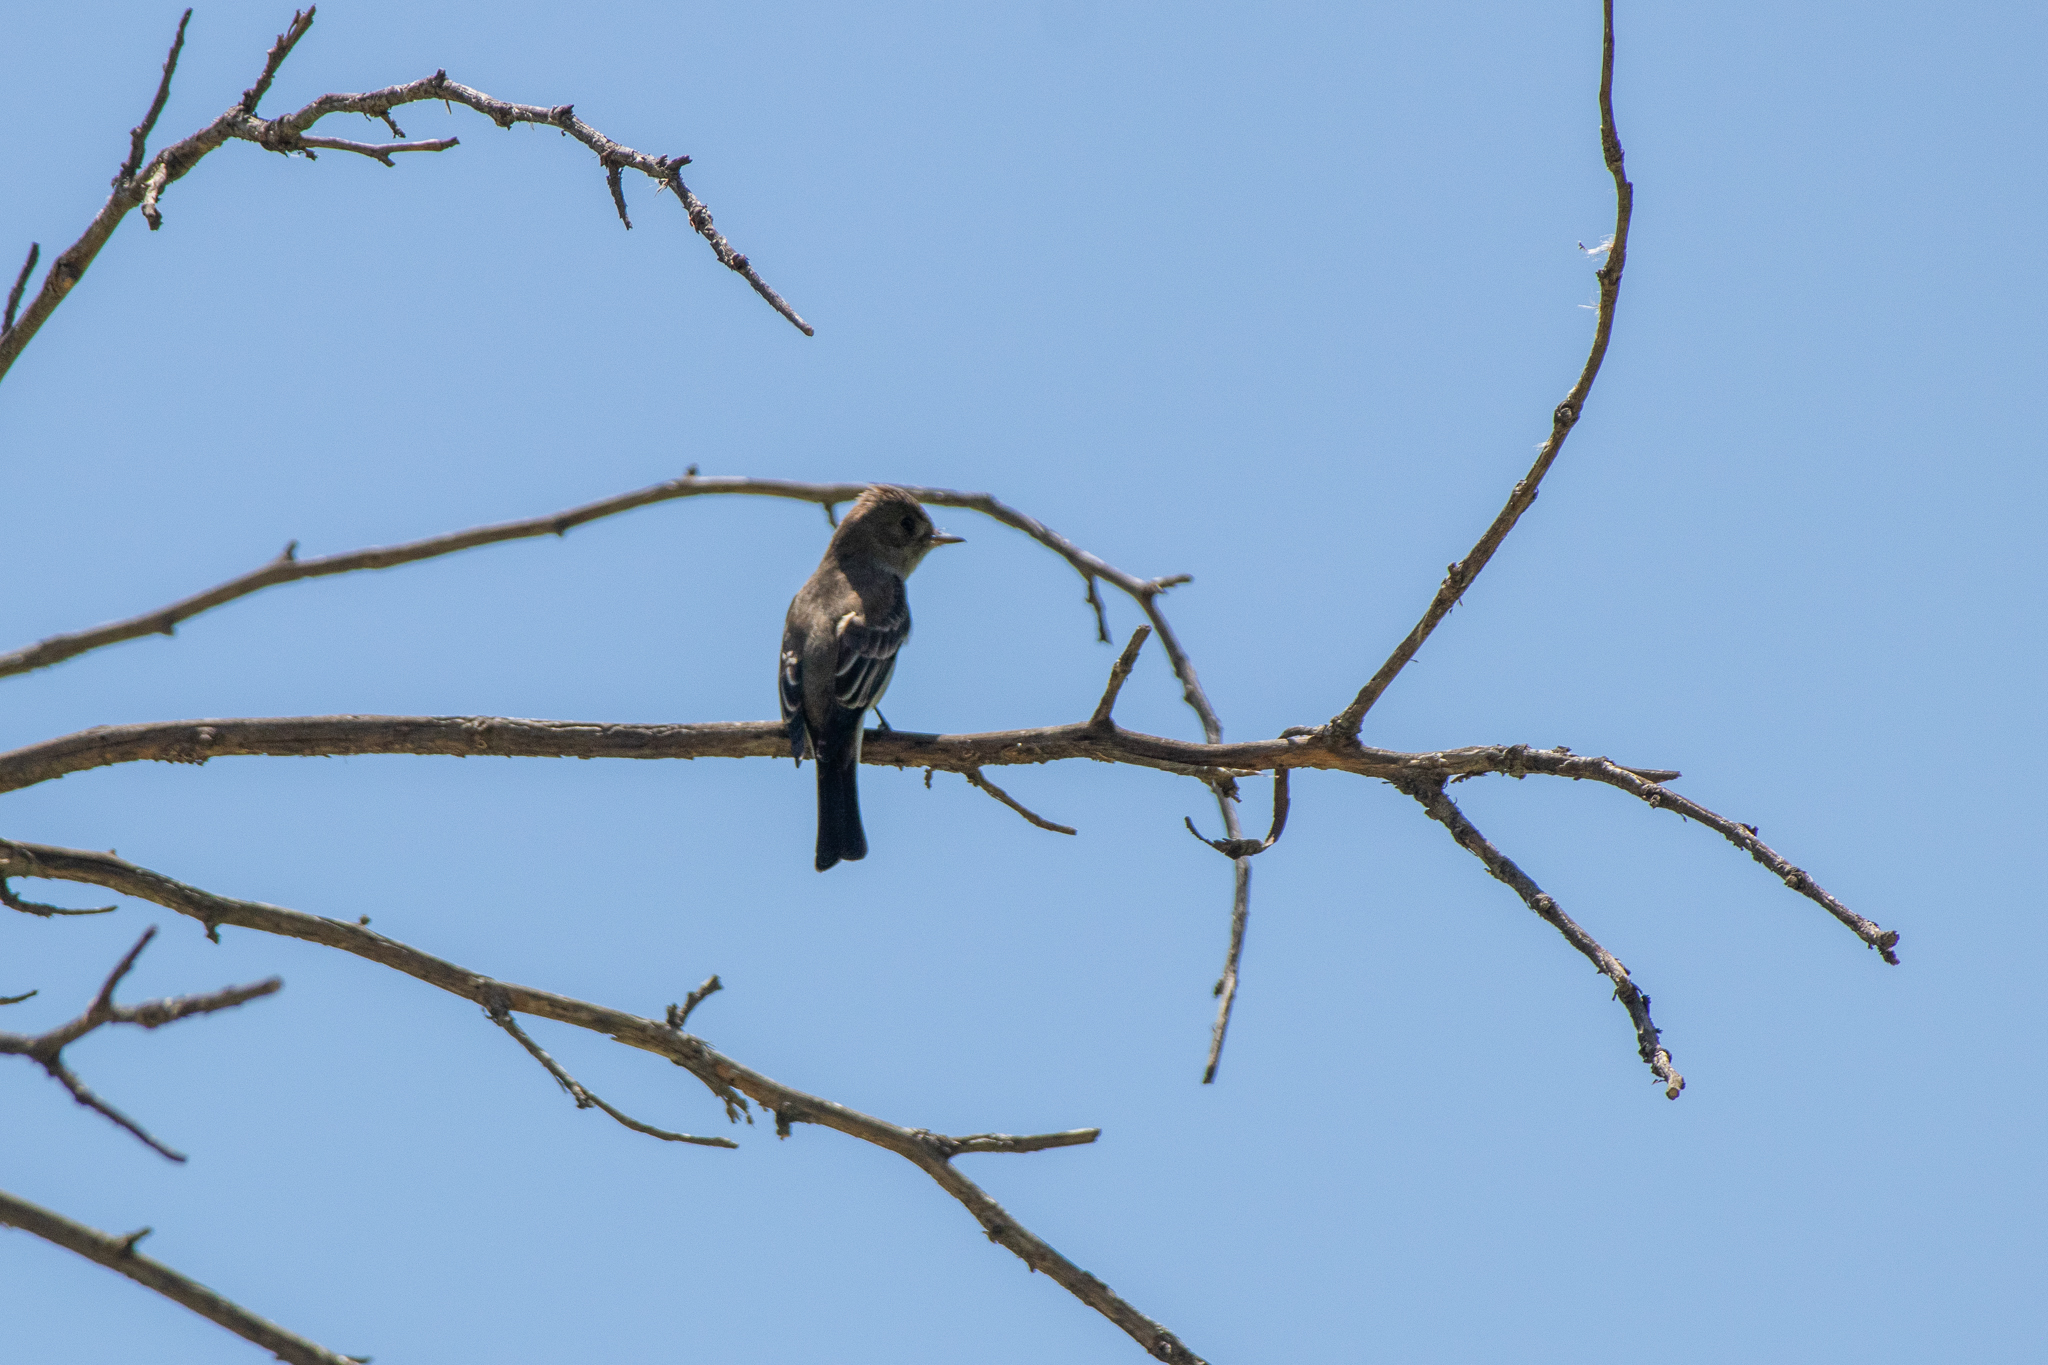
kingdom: Animalia
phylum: Chordata
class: Aves
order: Passeriformes
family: Tyrannidae
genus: Contopus
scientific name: Contopus sordidulus
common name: Western wood-pewee
